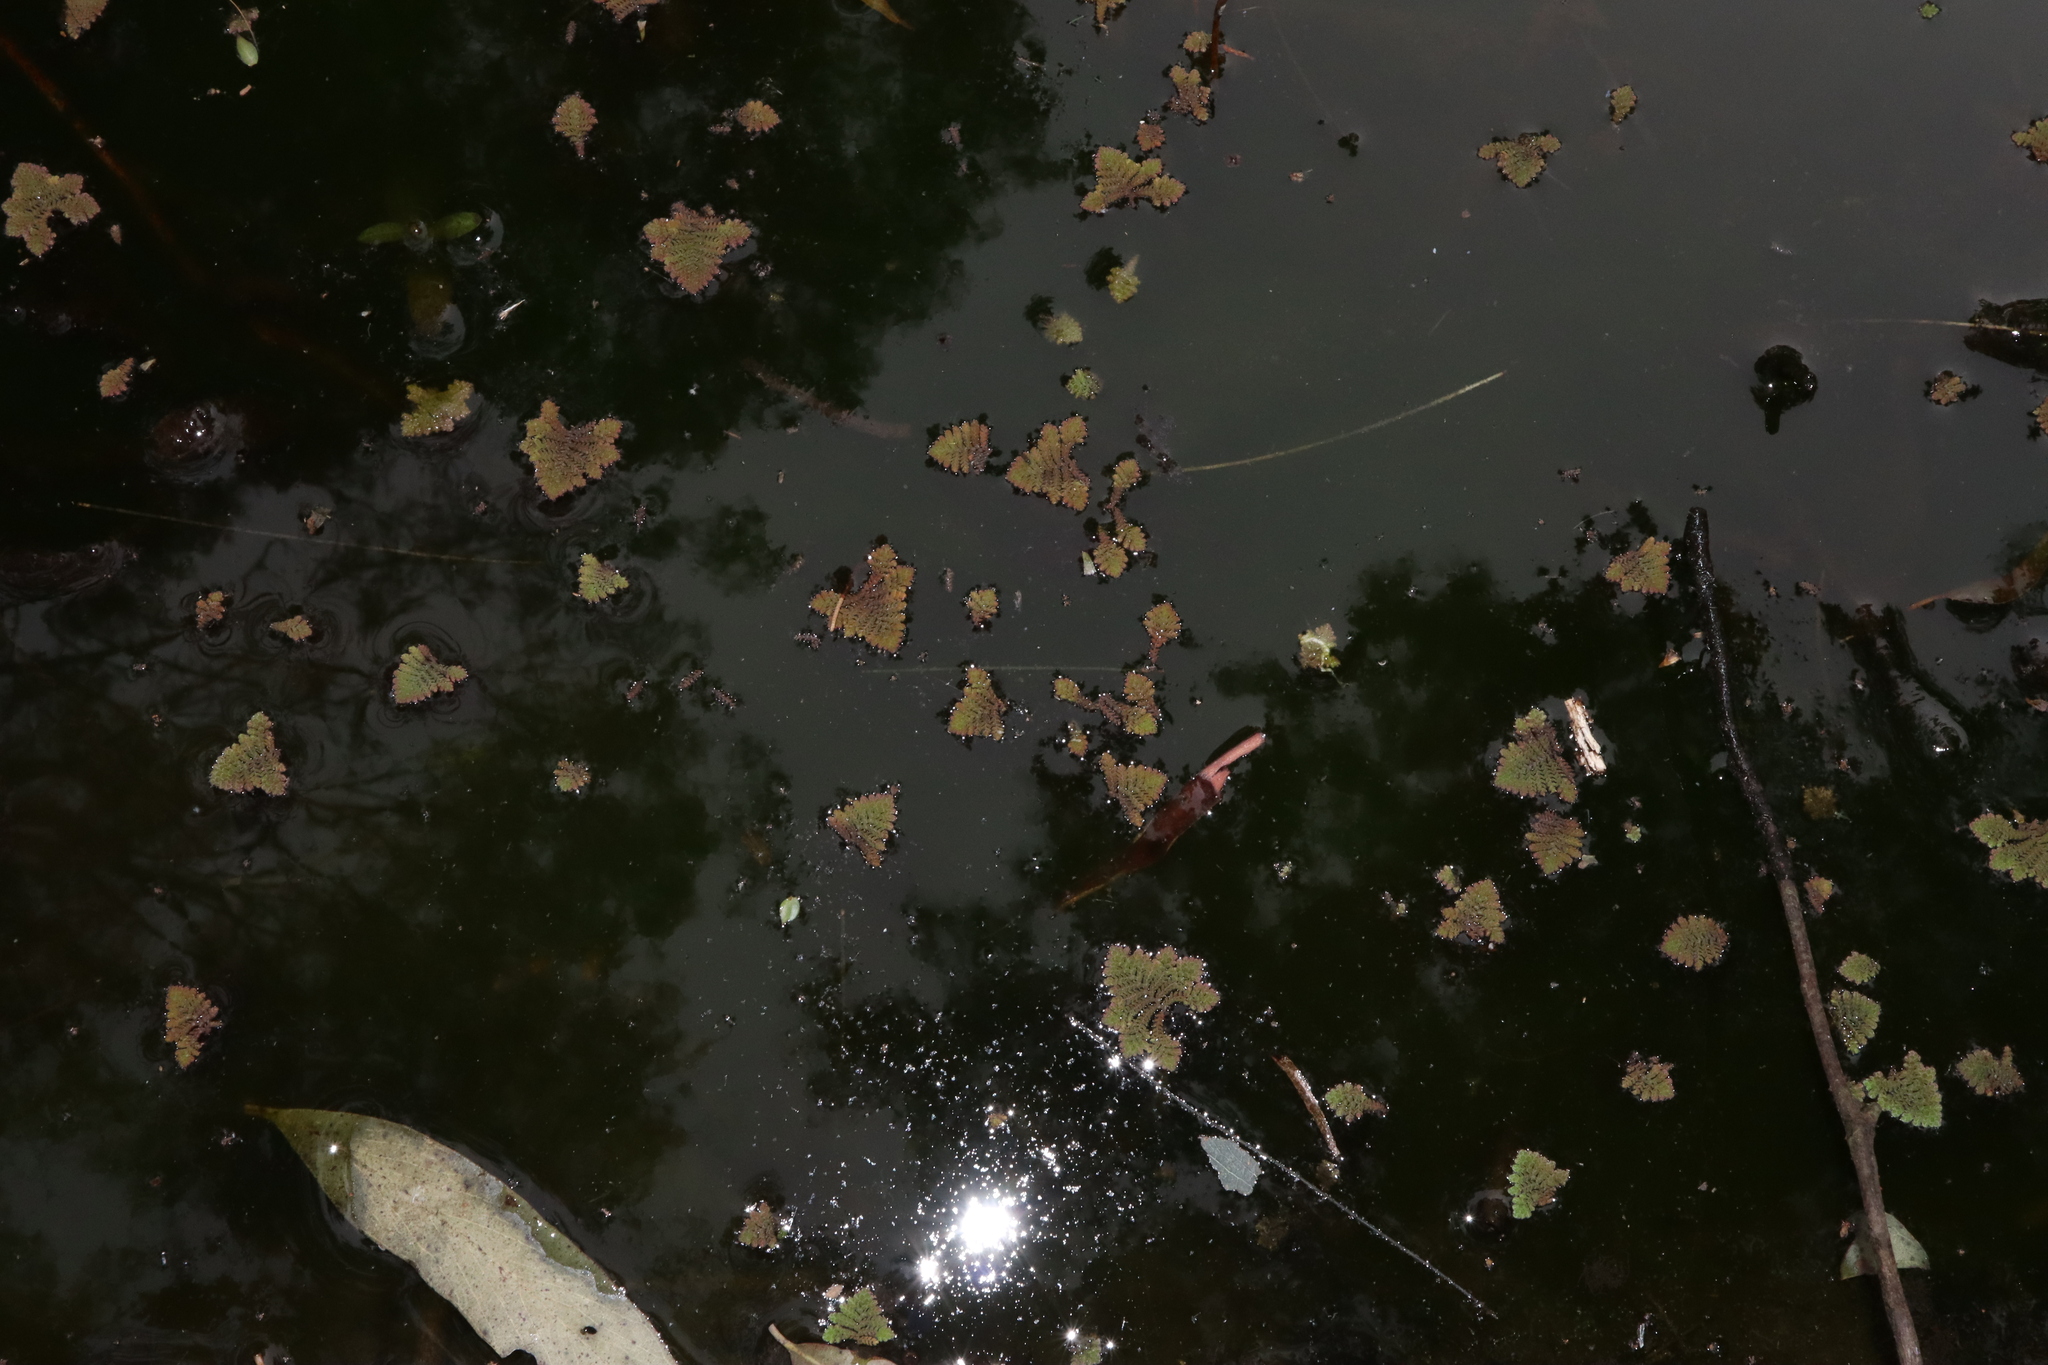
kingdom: Plantae
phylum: Tracheophyta
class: Polypodiopsida
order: Salviniales
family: Salviniaceae
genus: Azolla
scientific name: Azolla pinnata
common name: Ferny azolla
